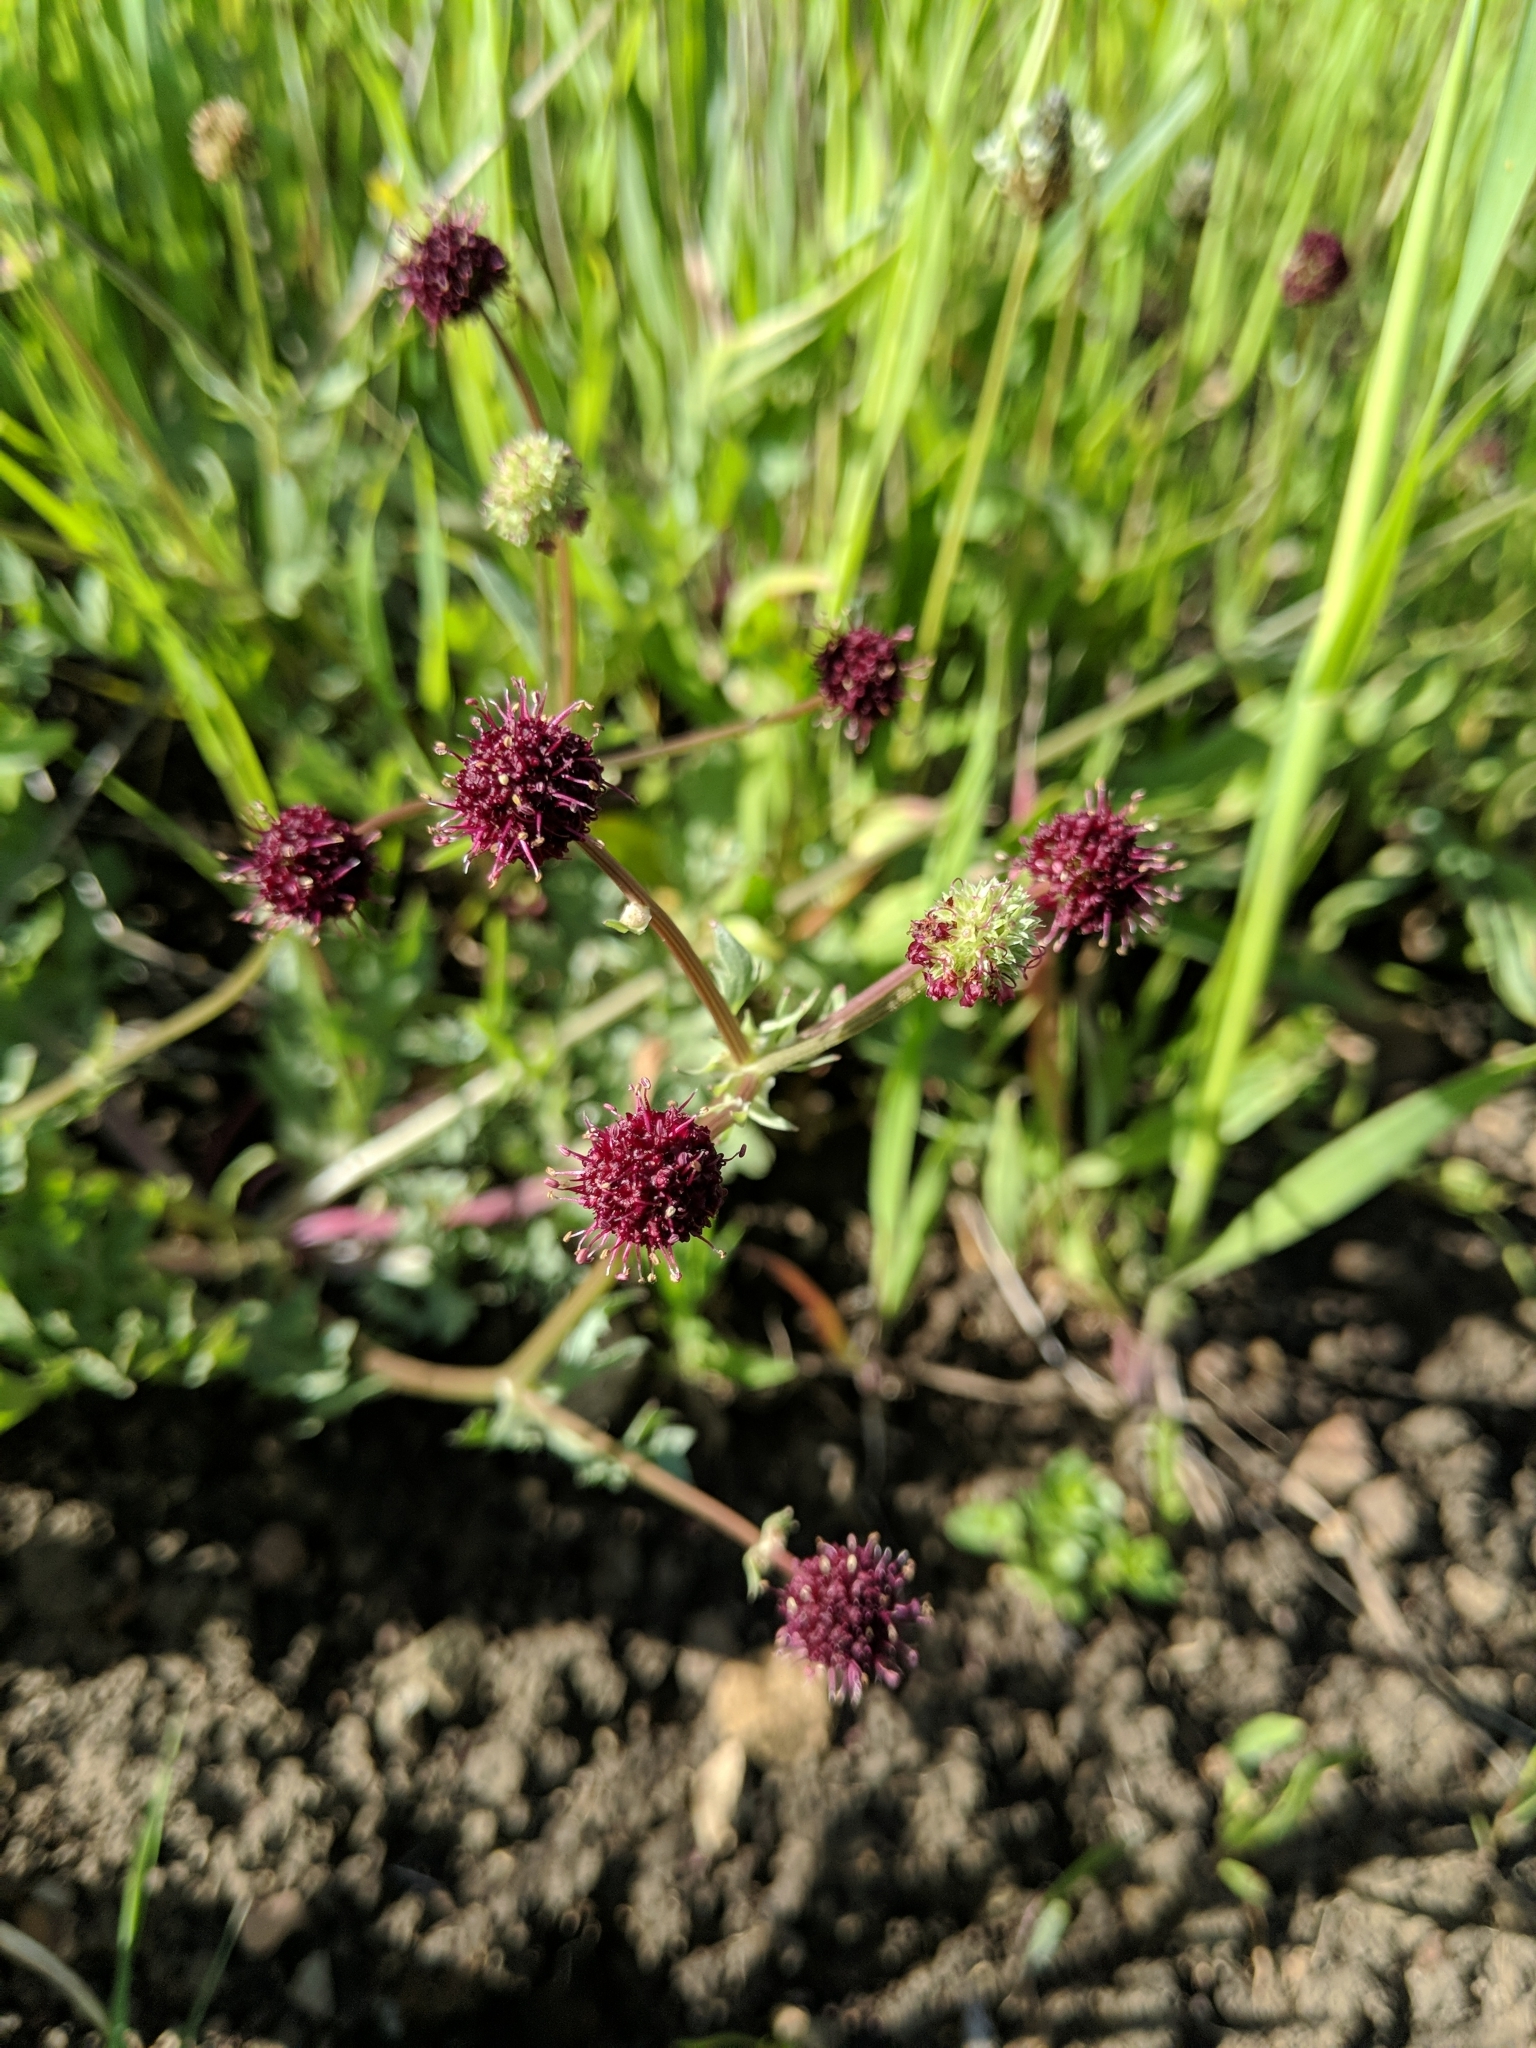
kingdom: Plantae
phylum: Tracheophyta
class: Magnoliopsida
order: Apiales
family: Apiaceae
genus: Sanicula
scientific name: Sanicula bipinnatifida
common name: Shoe-buttons
